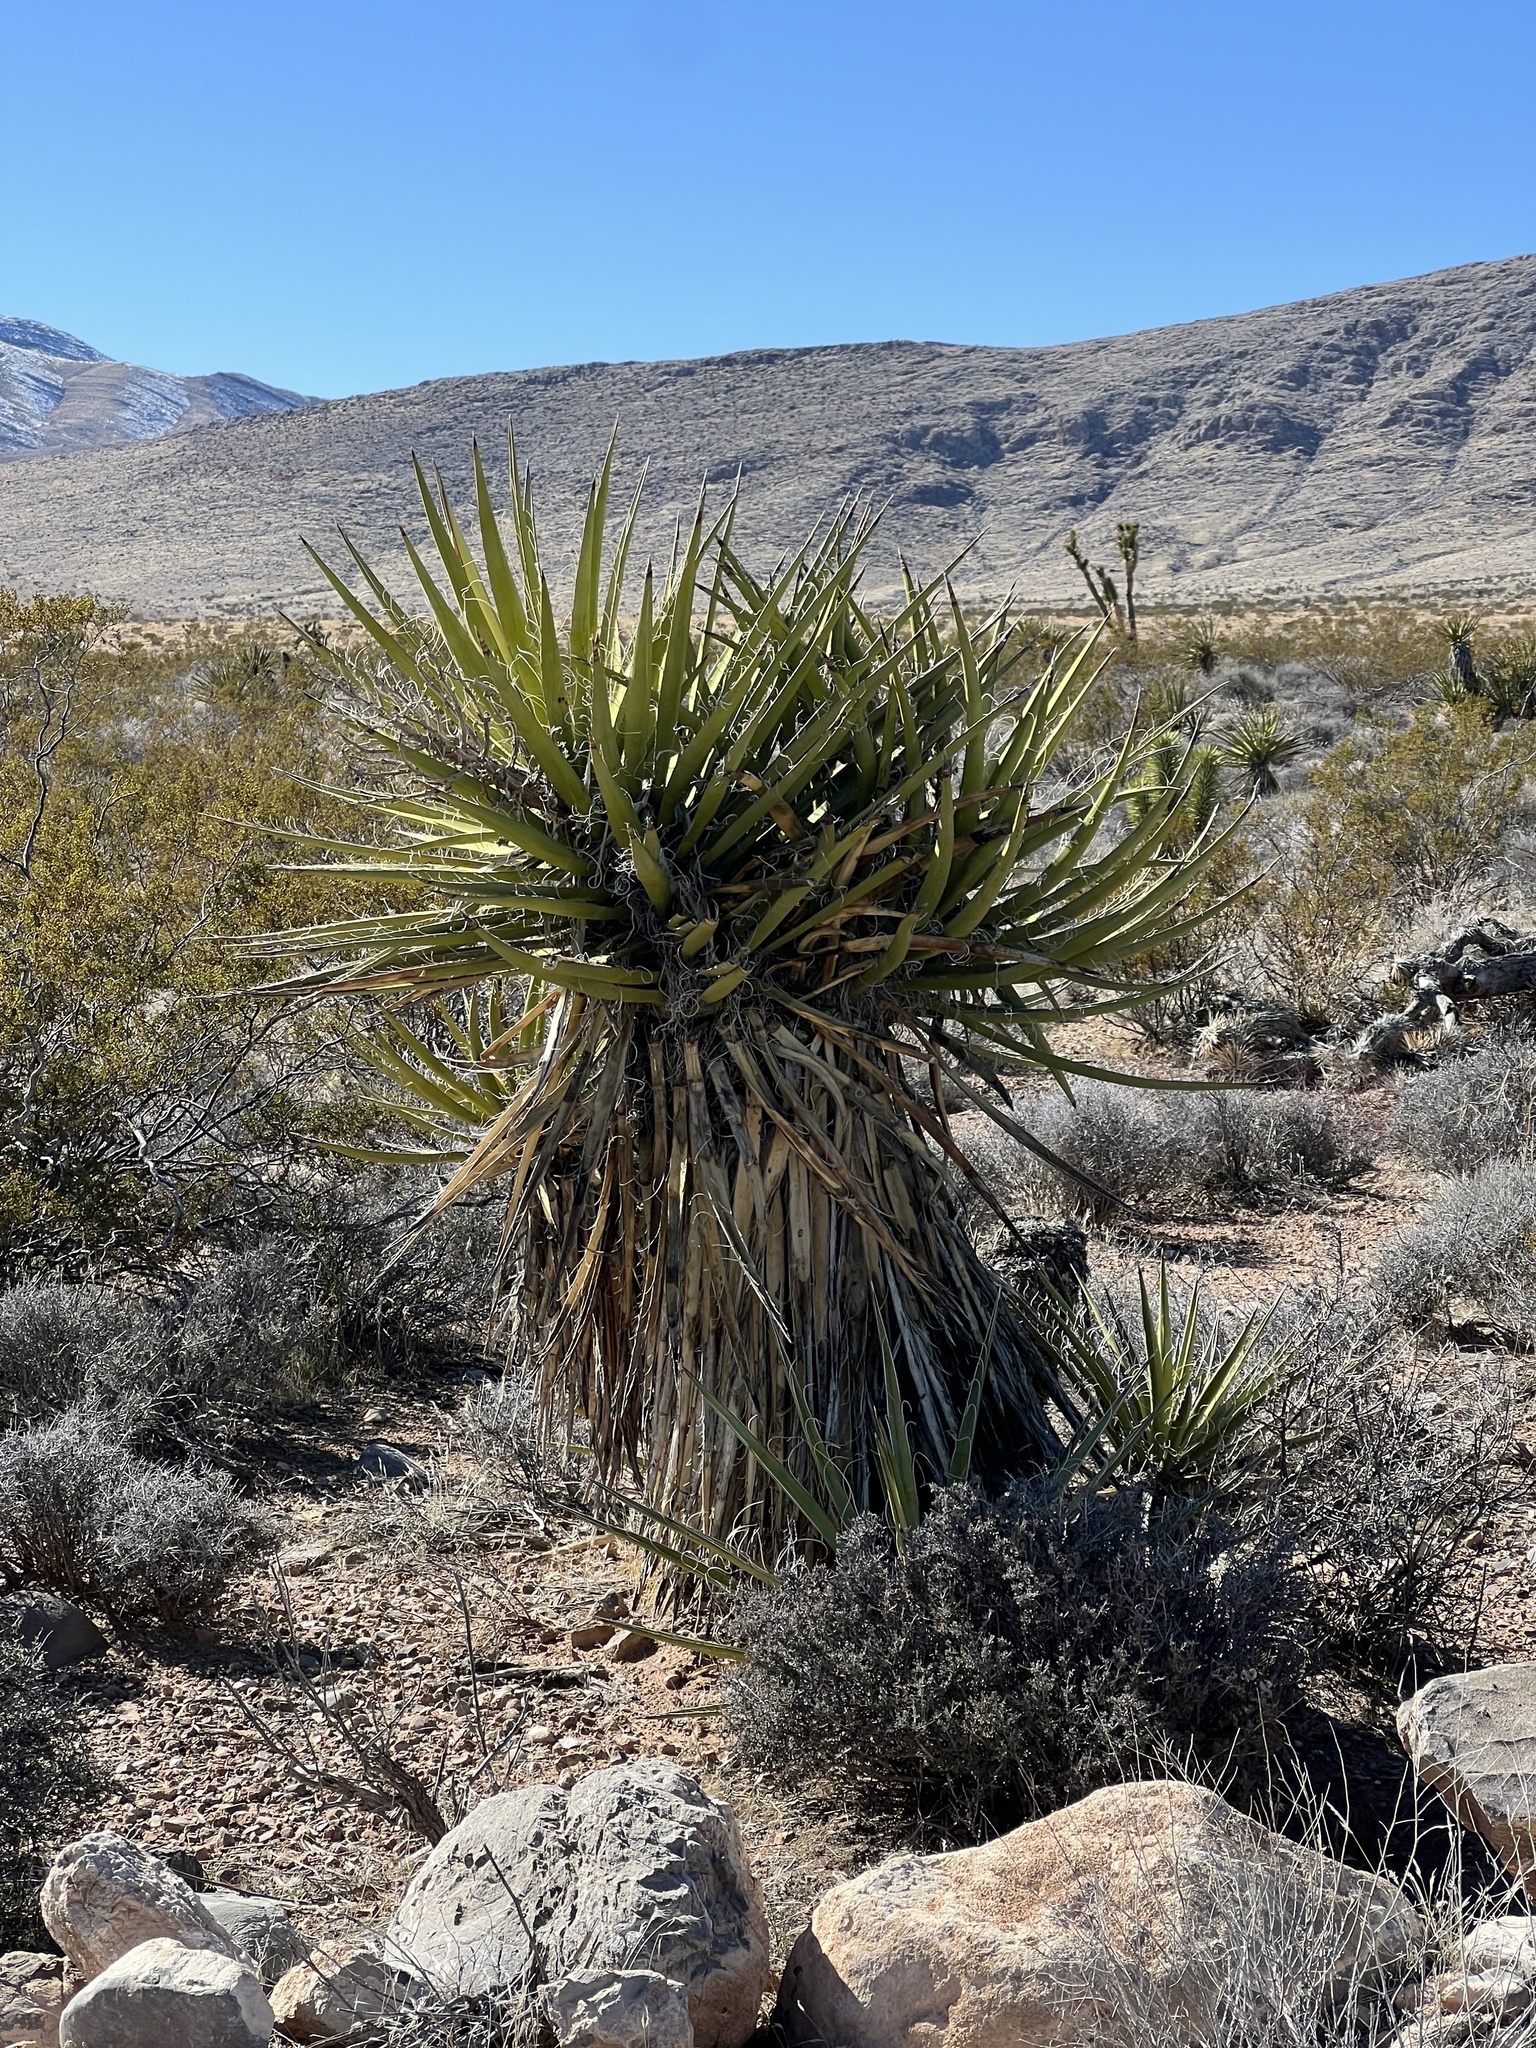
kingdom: Plantae
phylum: Tracheophyta
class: Liliopsida
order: Asparagales
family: Asparagaceae
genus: Yucca
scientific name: Yucca schidigera
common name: Mojave yucca
